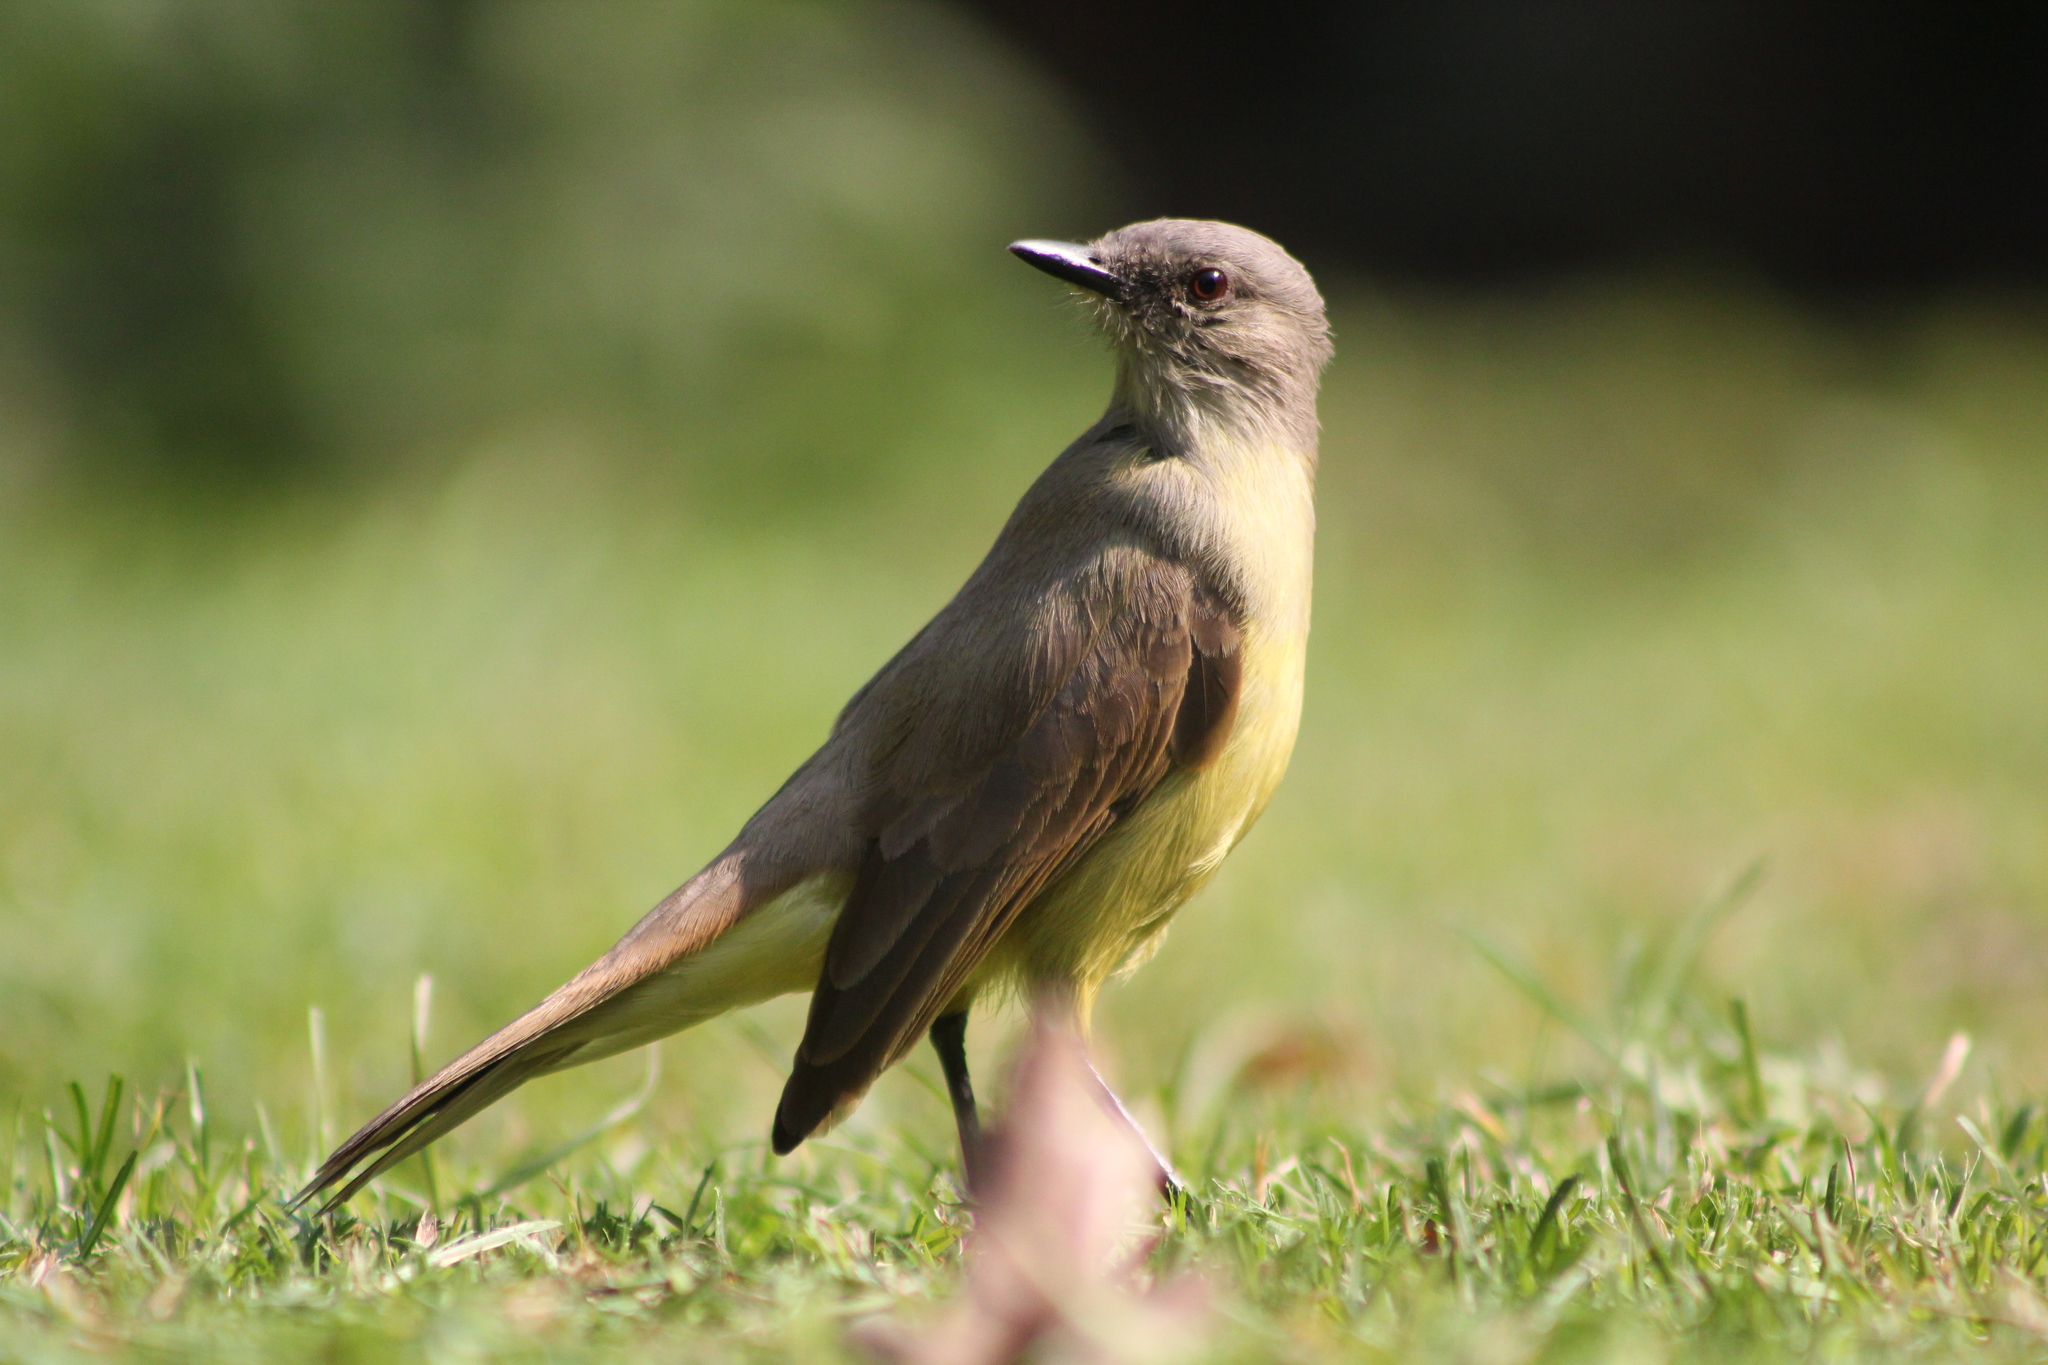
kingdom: Animalia
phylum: Chordata
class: Aves
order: Passeriformes
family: Tyrannidae
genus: Machetornis
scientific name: Machetornis rixosa
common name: Cattle tyrant
